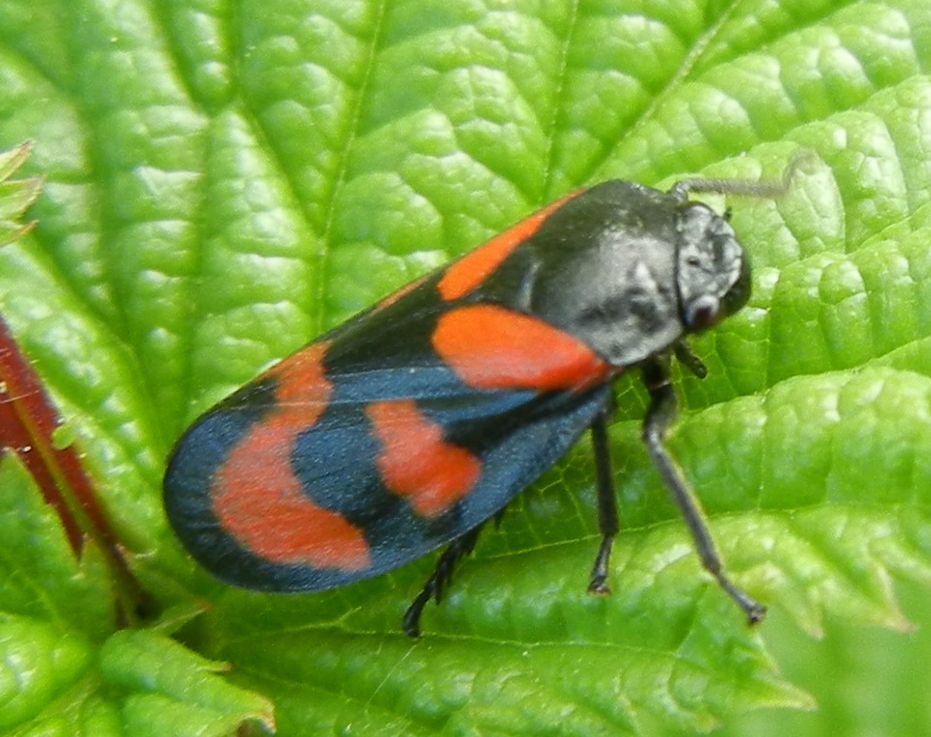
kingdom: Animalia
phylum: Arthropoda
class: Insecta
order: Hemiptera
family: Cercopidae
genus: Cercopis
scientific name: Cercopis vulnerata
